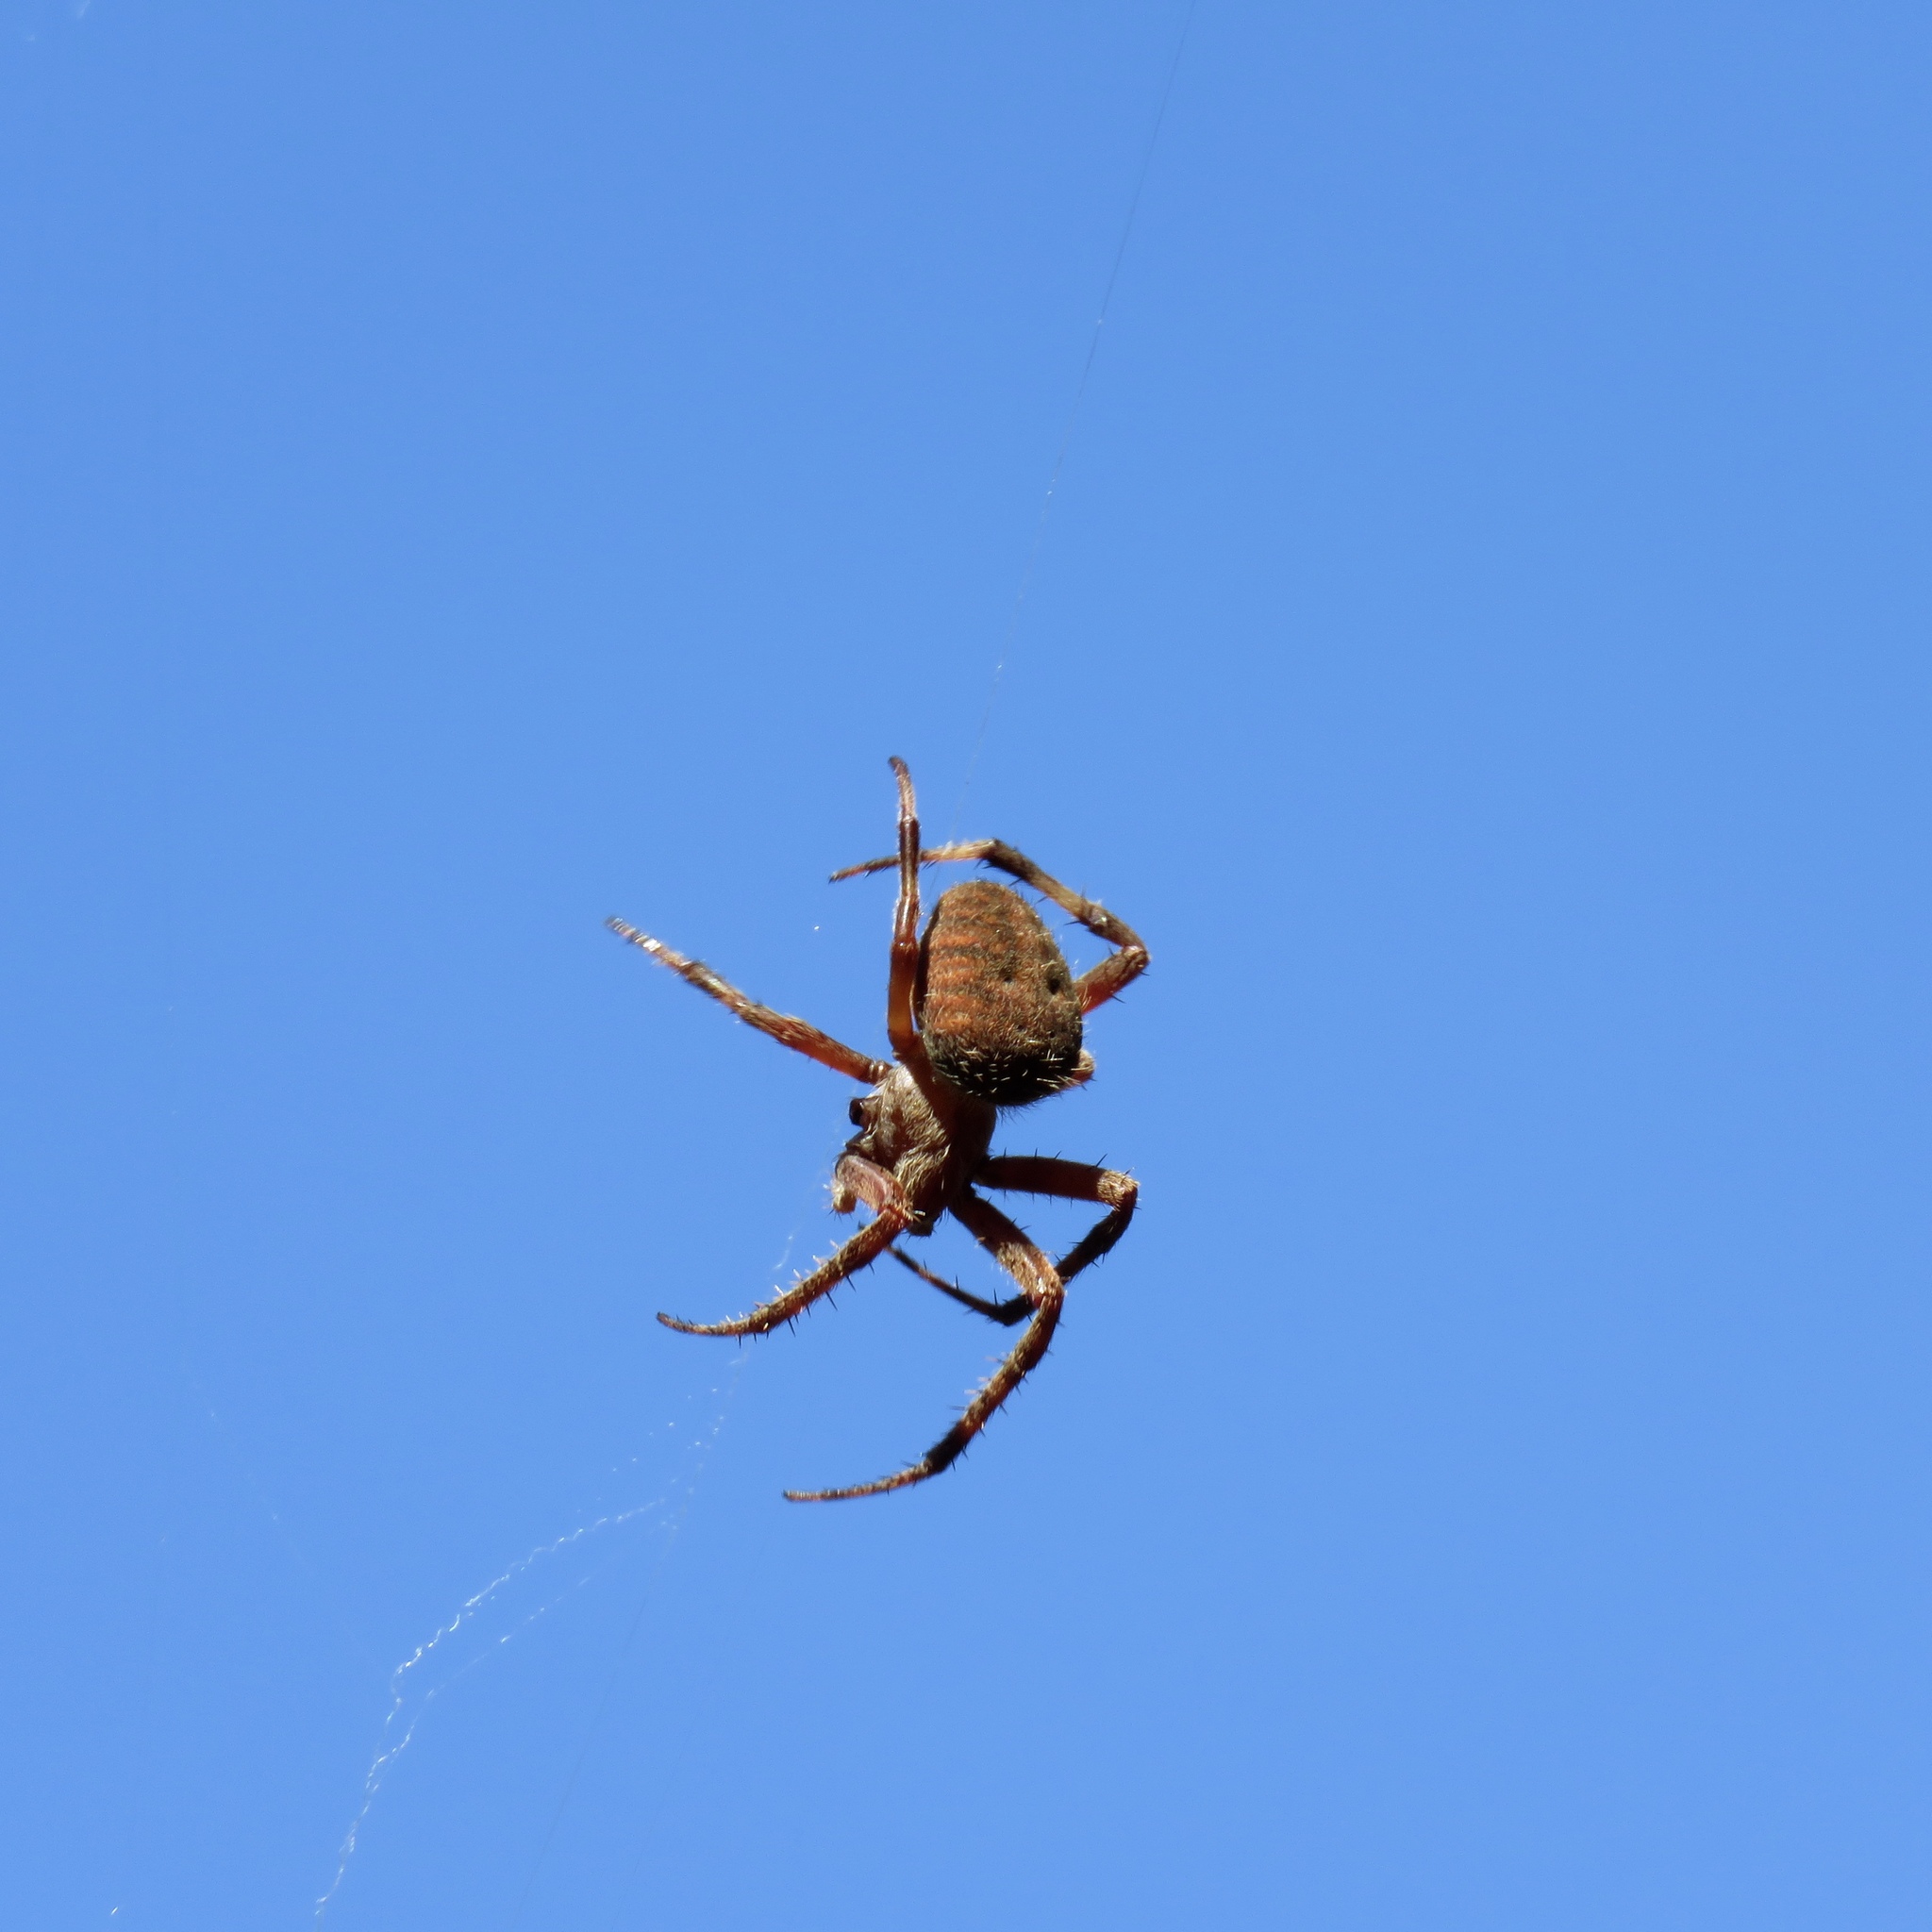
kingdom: Animalia
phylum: Arthropoda
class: Arachnida
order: Araneae
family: Araneidae
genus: Neoscona
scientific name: Neoscona crucifera
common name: Spotted orbweaver
